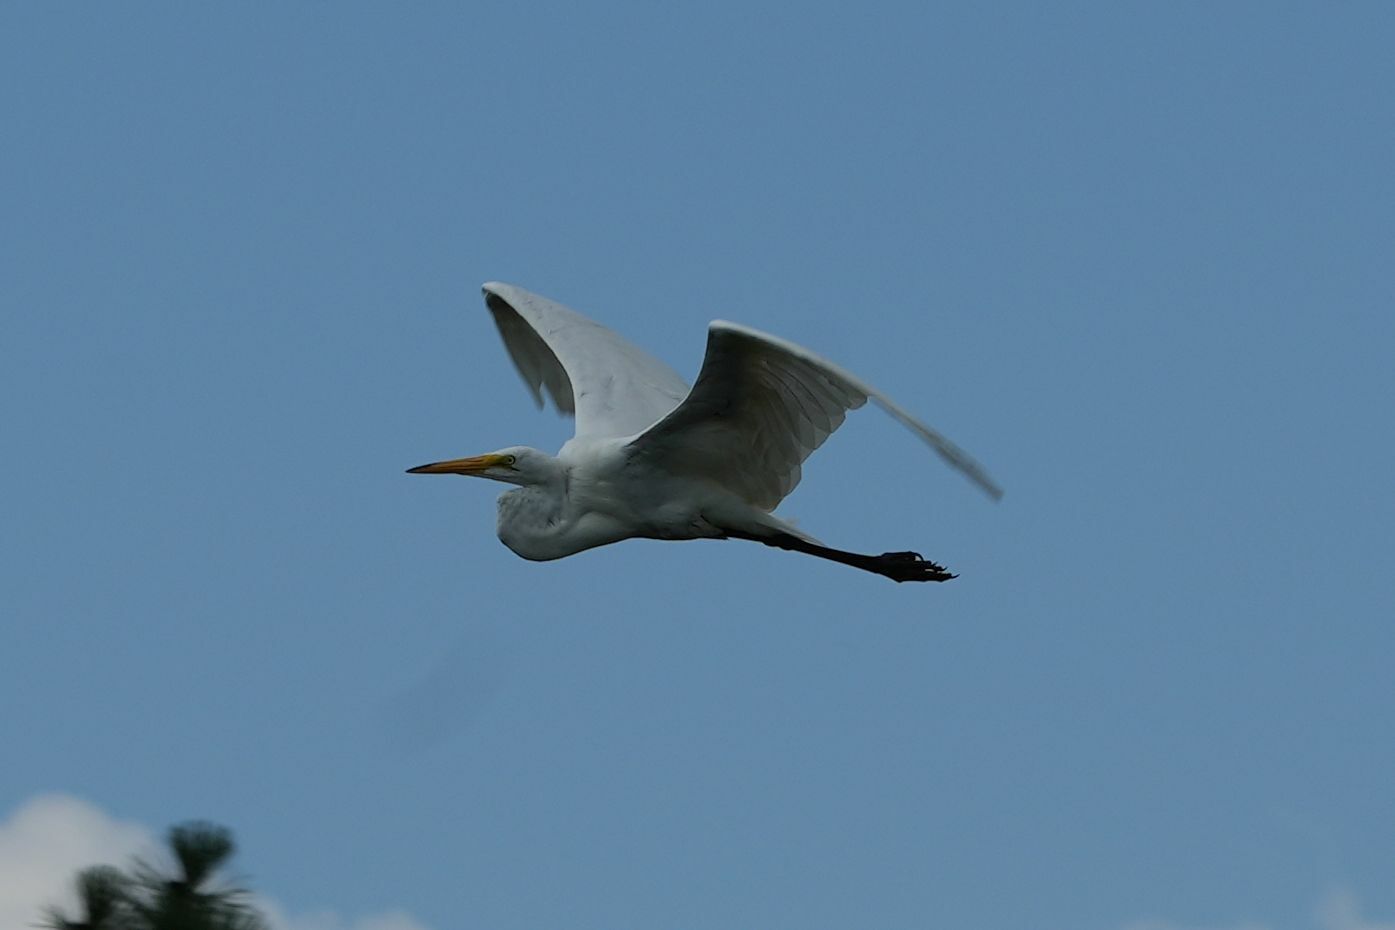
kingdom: Animalia
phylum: Chordata
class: Aves
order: Pelecaniformes
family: Ardeidae
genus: Ardea
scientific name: Ardea alba
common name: Great egret
